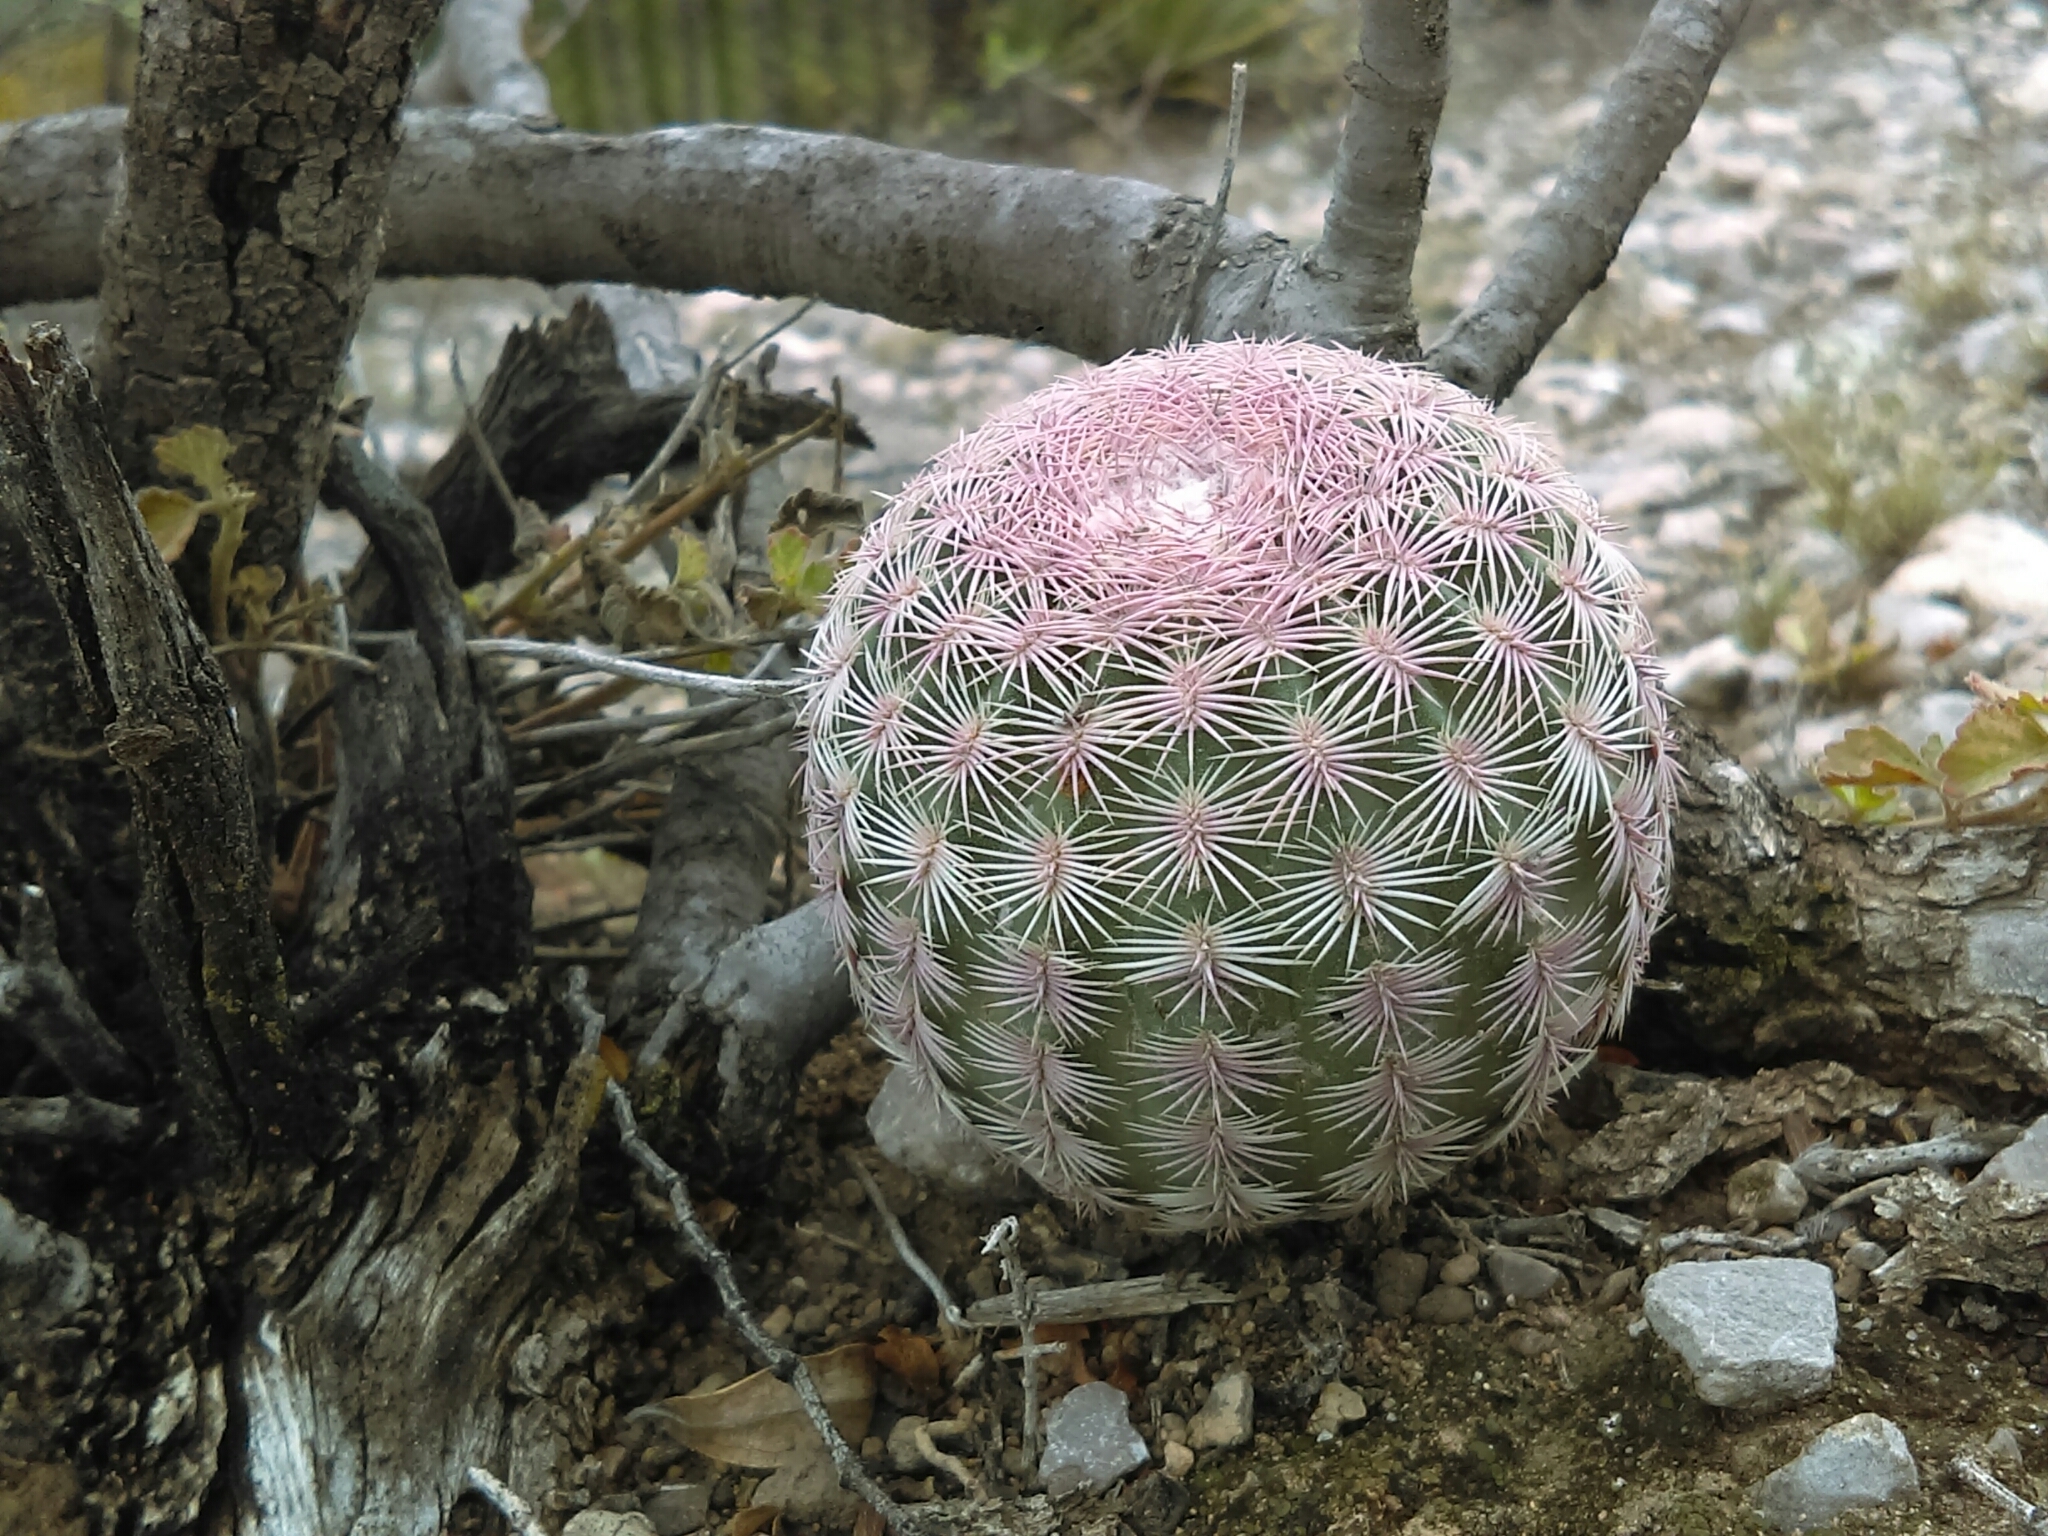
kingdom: Plantae
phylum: Tracheophyta
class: Magnoliopsida
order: Caryophyllales
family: Cactaceae
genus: Echinocereus
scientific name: Echinocereus pectinatus
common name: Rainbow cactus
